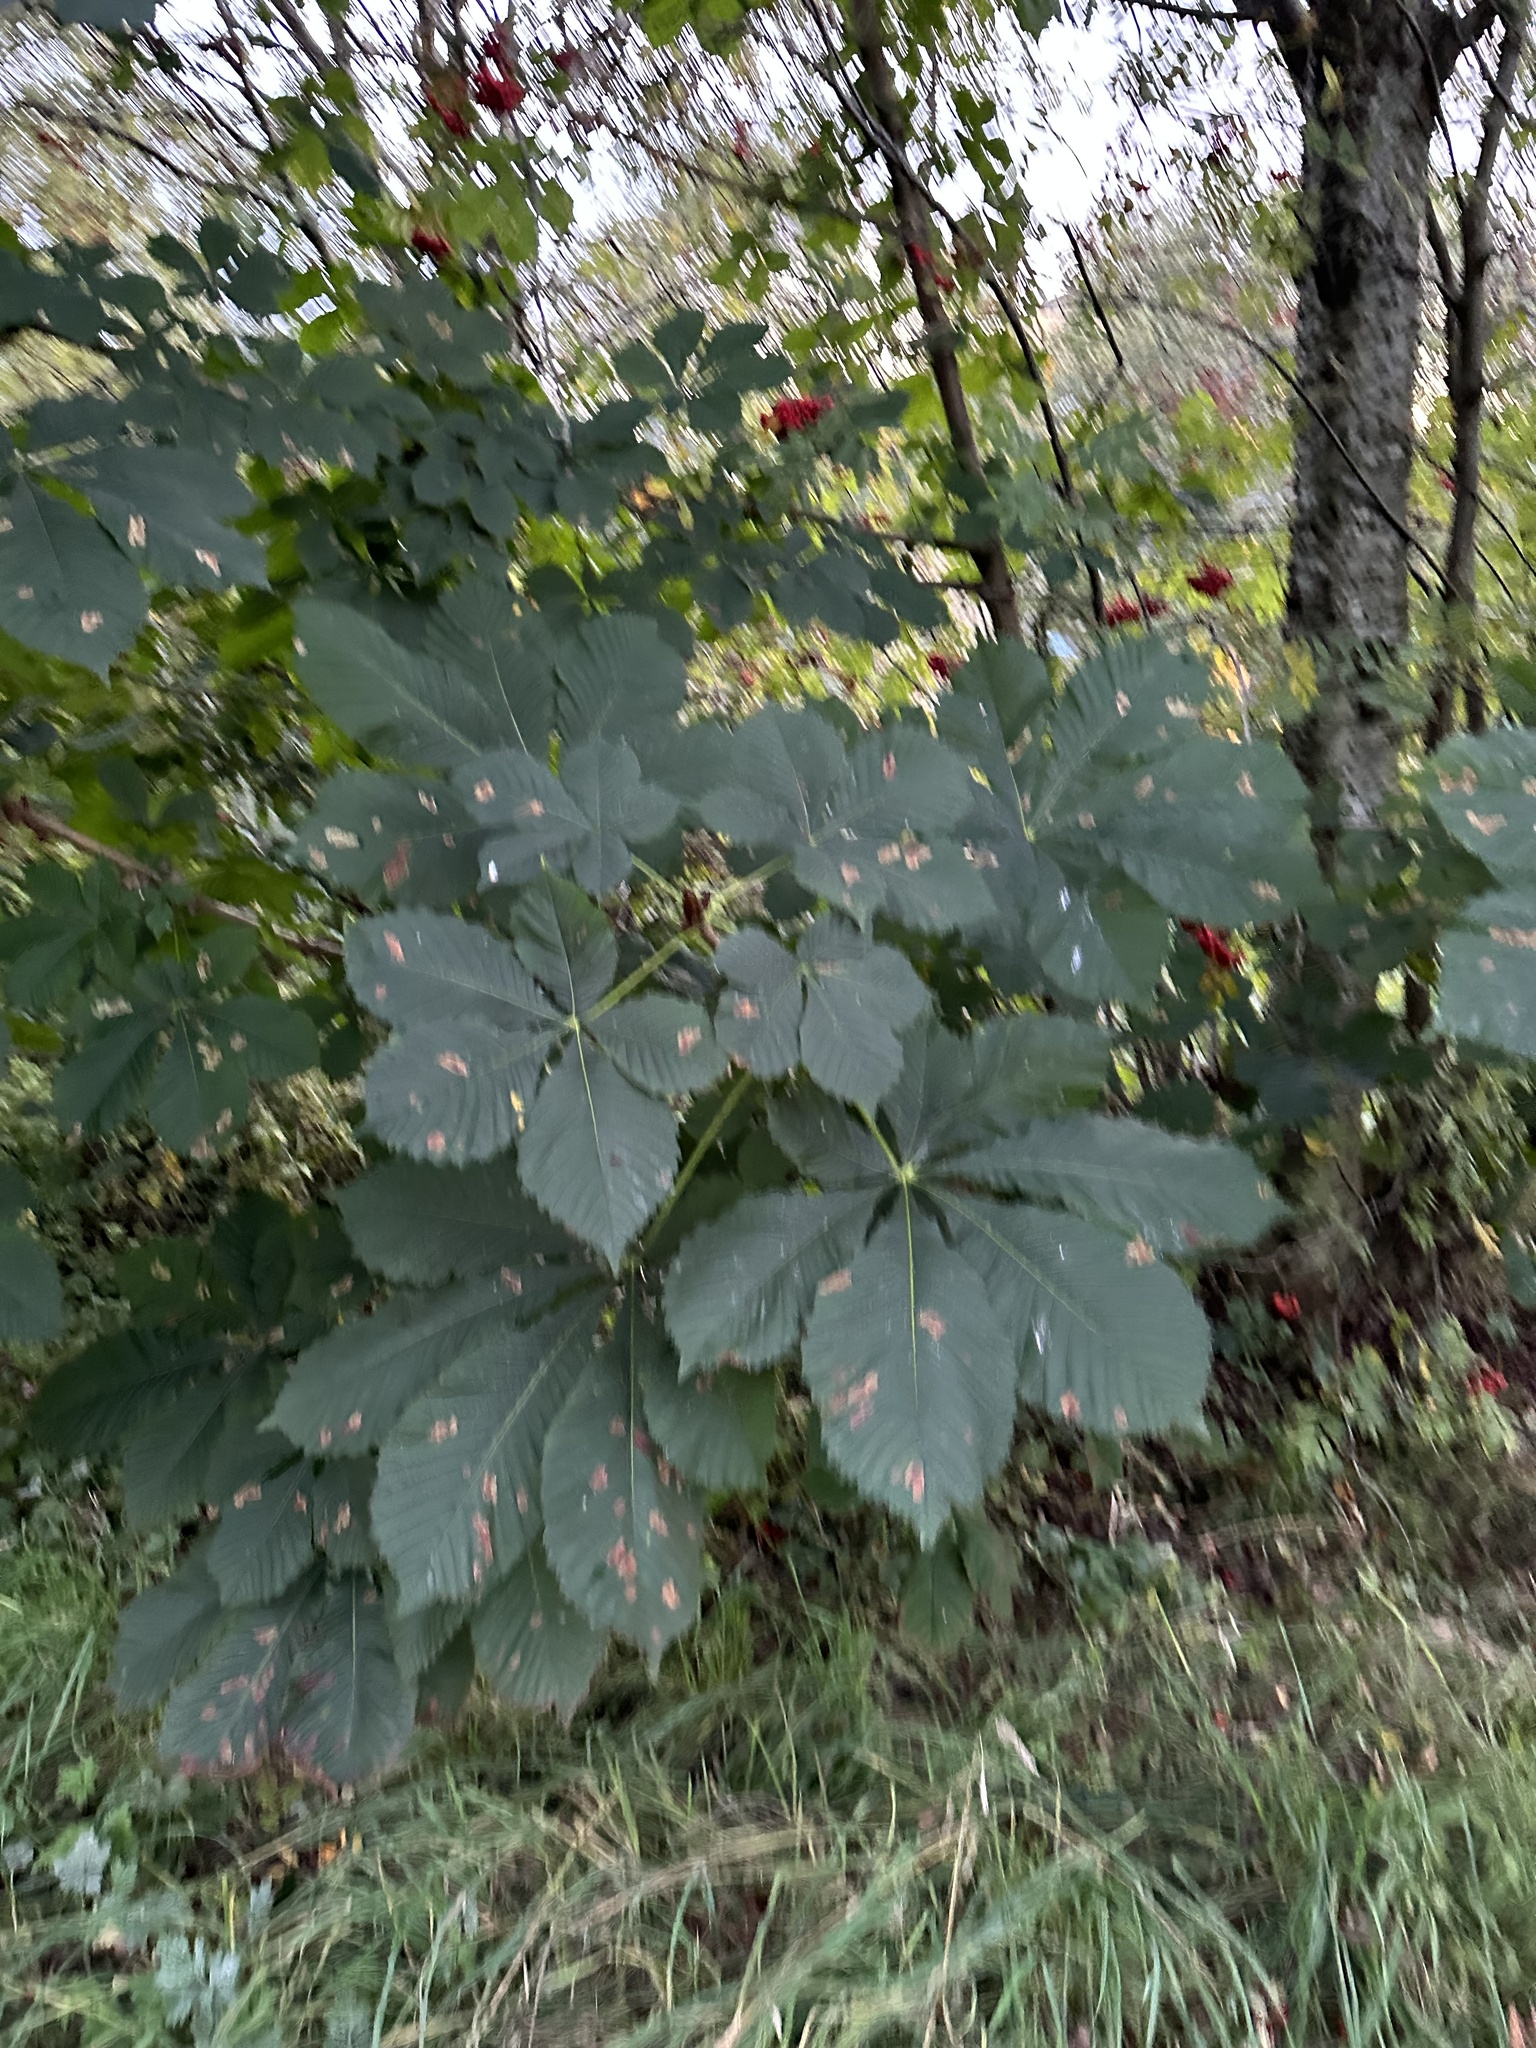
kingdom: Plantae
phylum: Tracheophyta
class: Magnoliopsida
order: Sapindales
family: Sapindaceae
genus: Aesculus
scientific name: Aesculus hippocastanum
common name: Horse-chestnut
